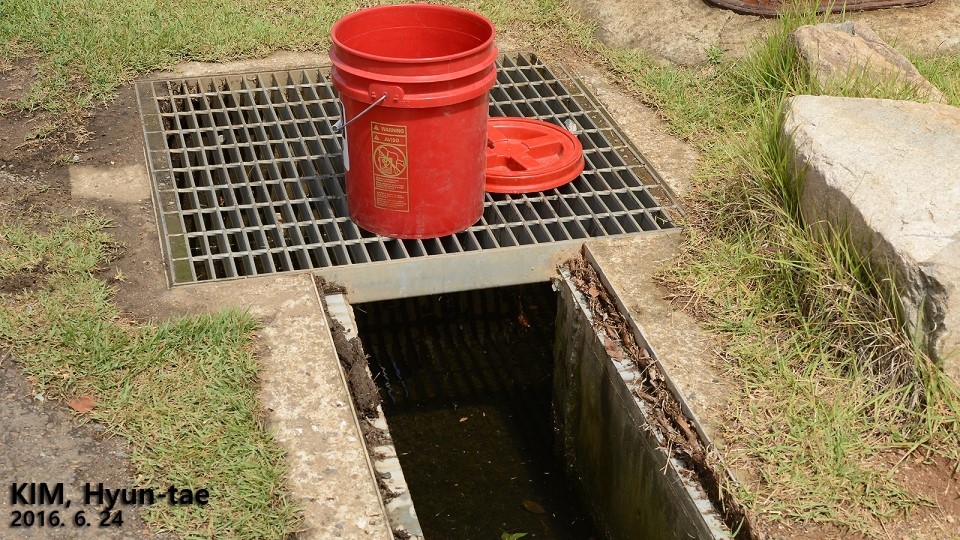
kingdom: Animalia
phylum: Chordata
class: Amphibia
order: Anura
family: Microhylidae
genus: Kaloula
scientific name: Kaloula borealis
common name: Boreal digging frog
